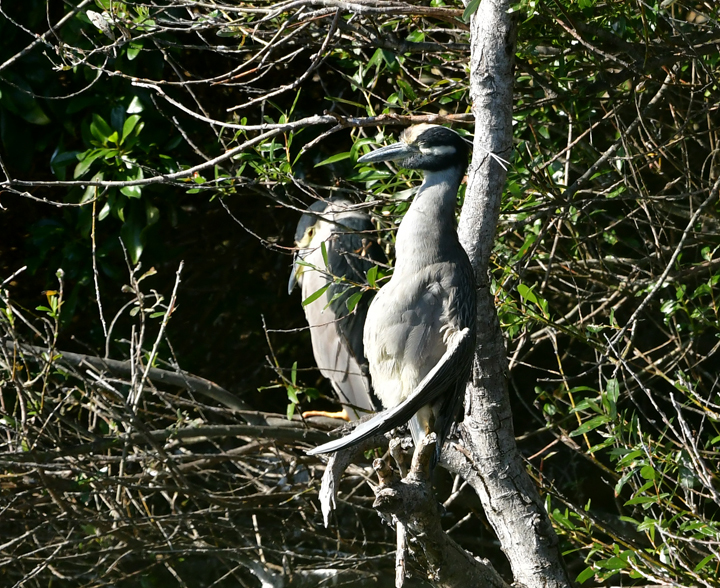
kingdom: Animalia
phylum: Chordata
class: Aves
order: Pelecaniformes
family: Ardeidae
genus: Nyctanassa
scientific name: Nyctanassa violacea
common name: Yellow-crowned night heron
